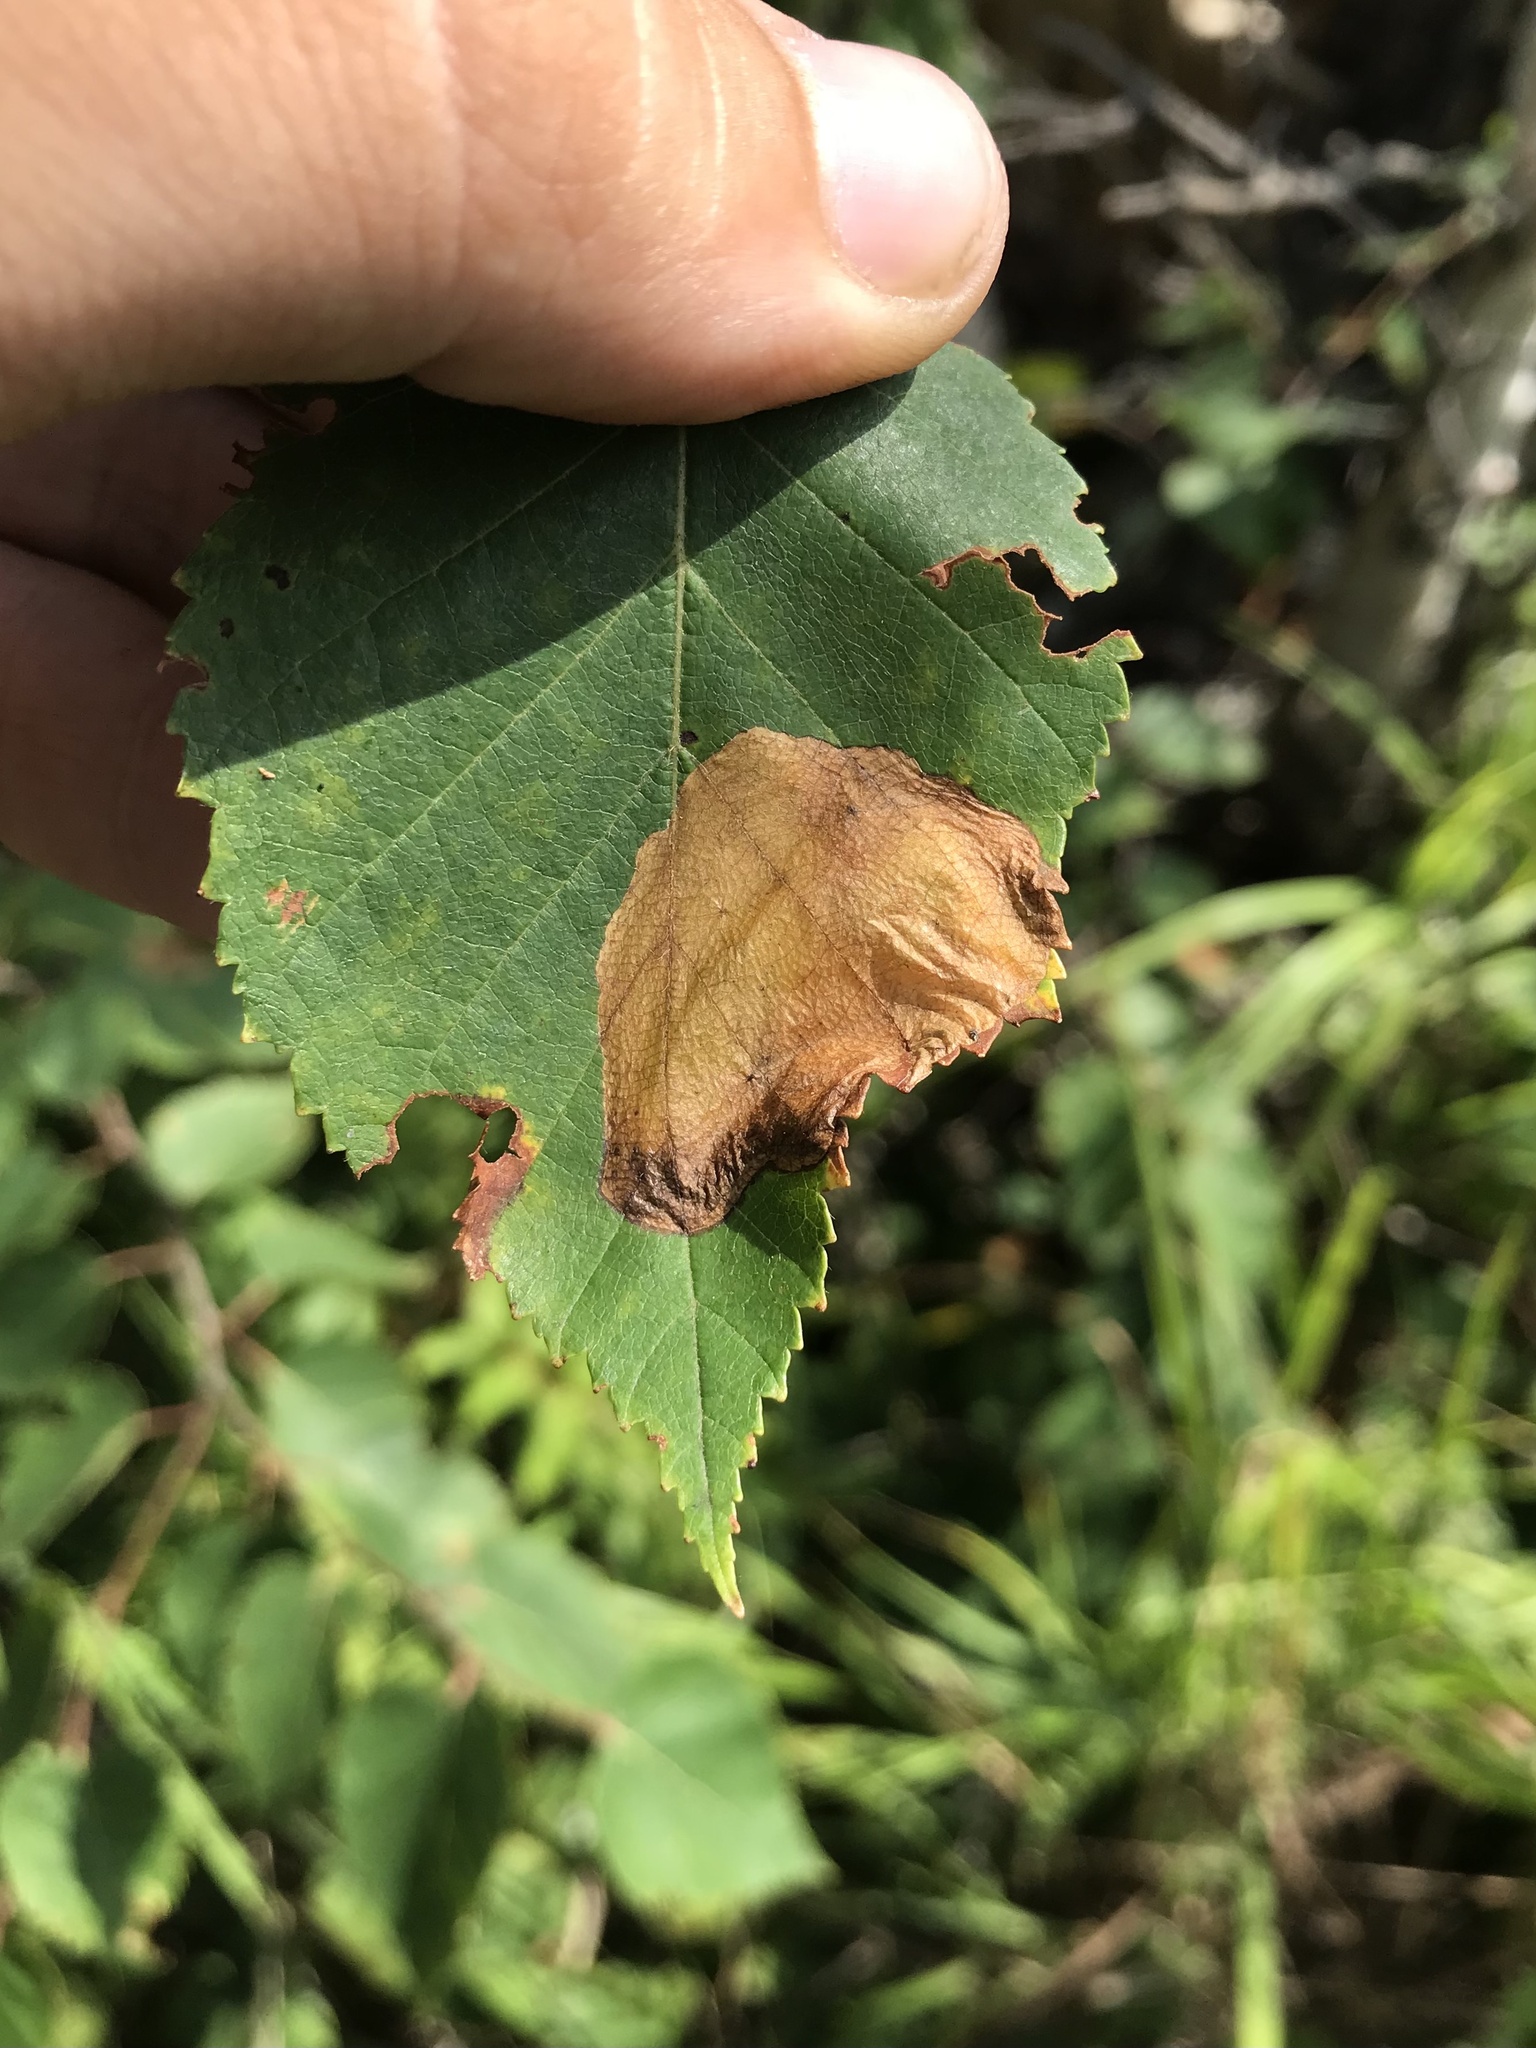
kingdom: Animalia
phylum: Arthropoda
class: Insecta
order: Hymenoptera
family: Tenthredinidae
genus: Fenusella
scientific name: Fenusella nana
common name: Early birch leaf edgeminer
